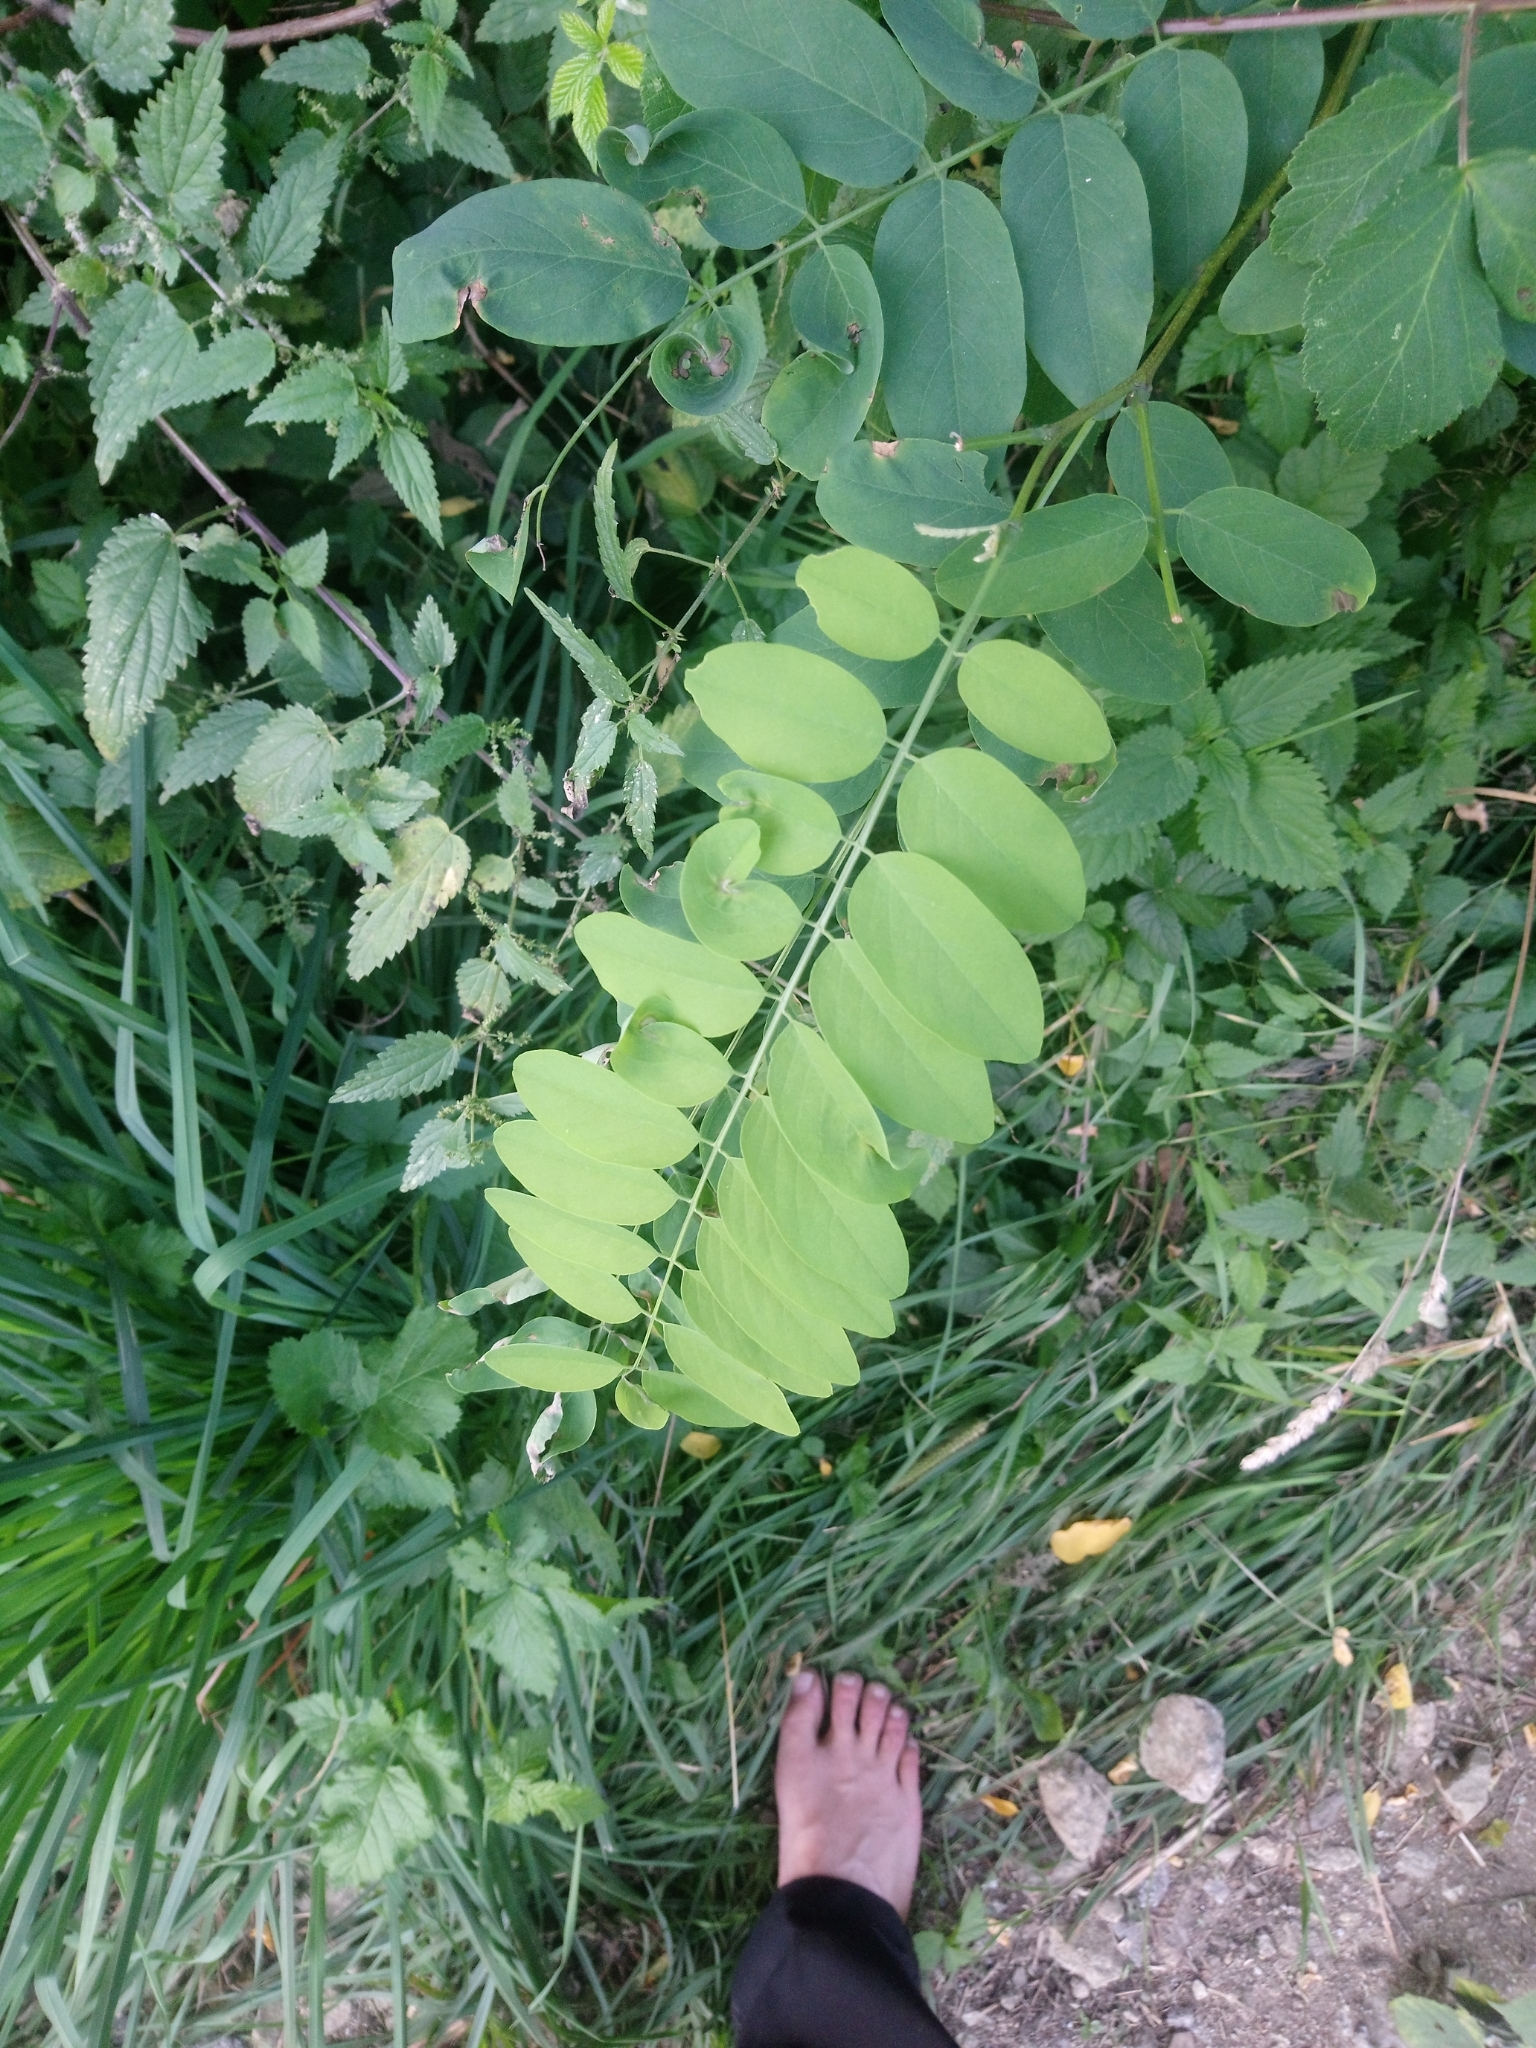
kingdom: Plantae
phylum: Tracheophyta
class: Magnoliopsida
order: Fabales
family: Fabaceae
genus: Robinia
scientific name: Robinia pseudoacacia
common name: Black locust
